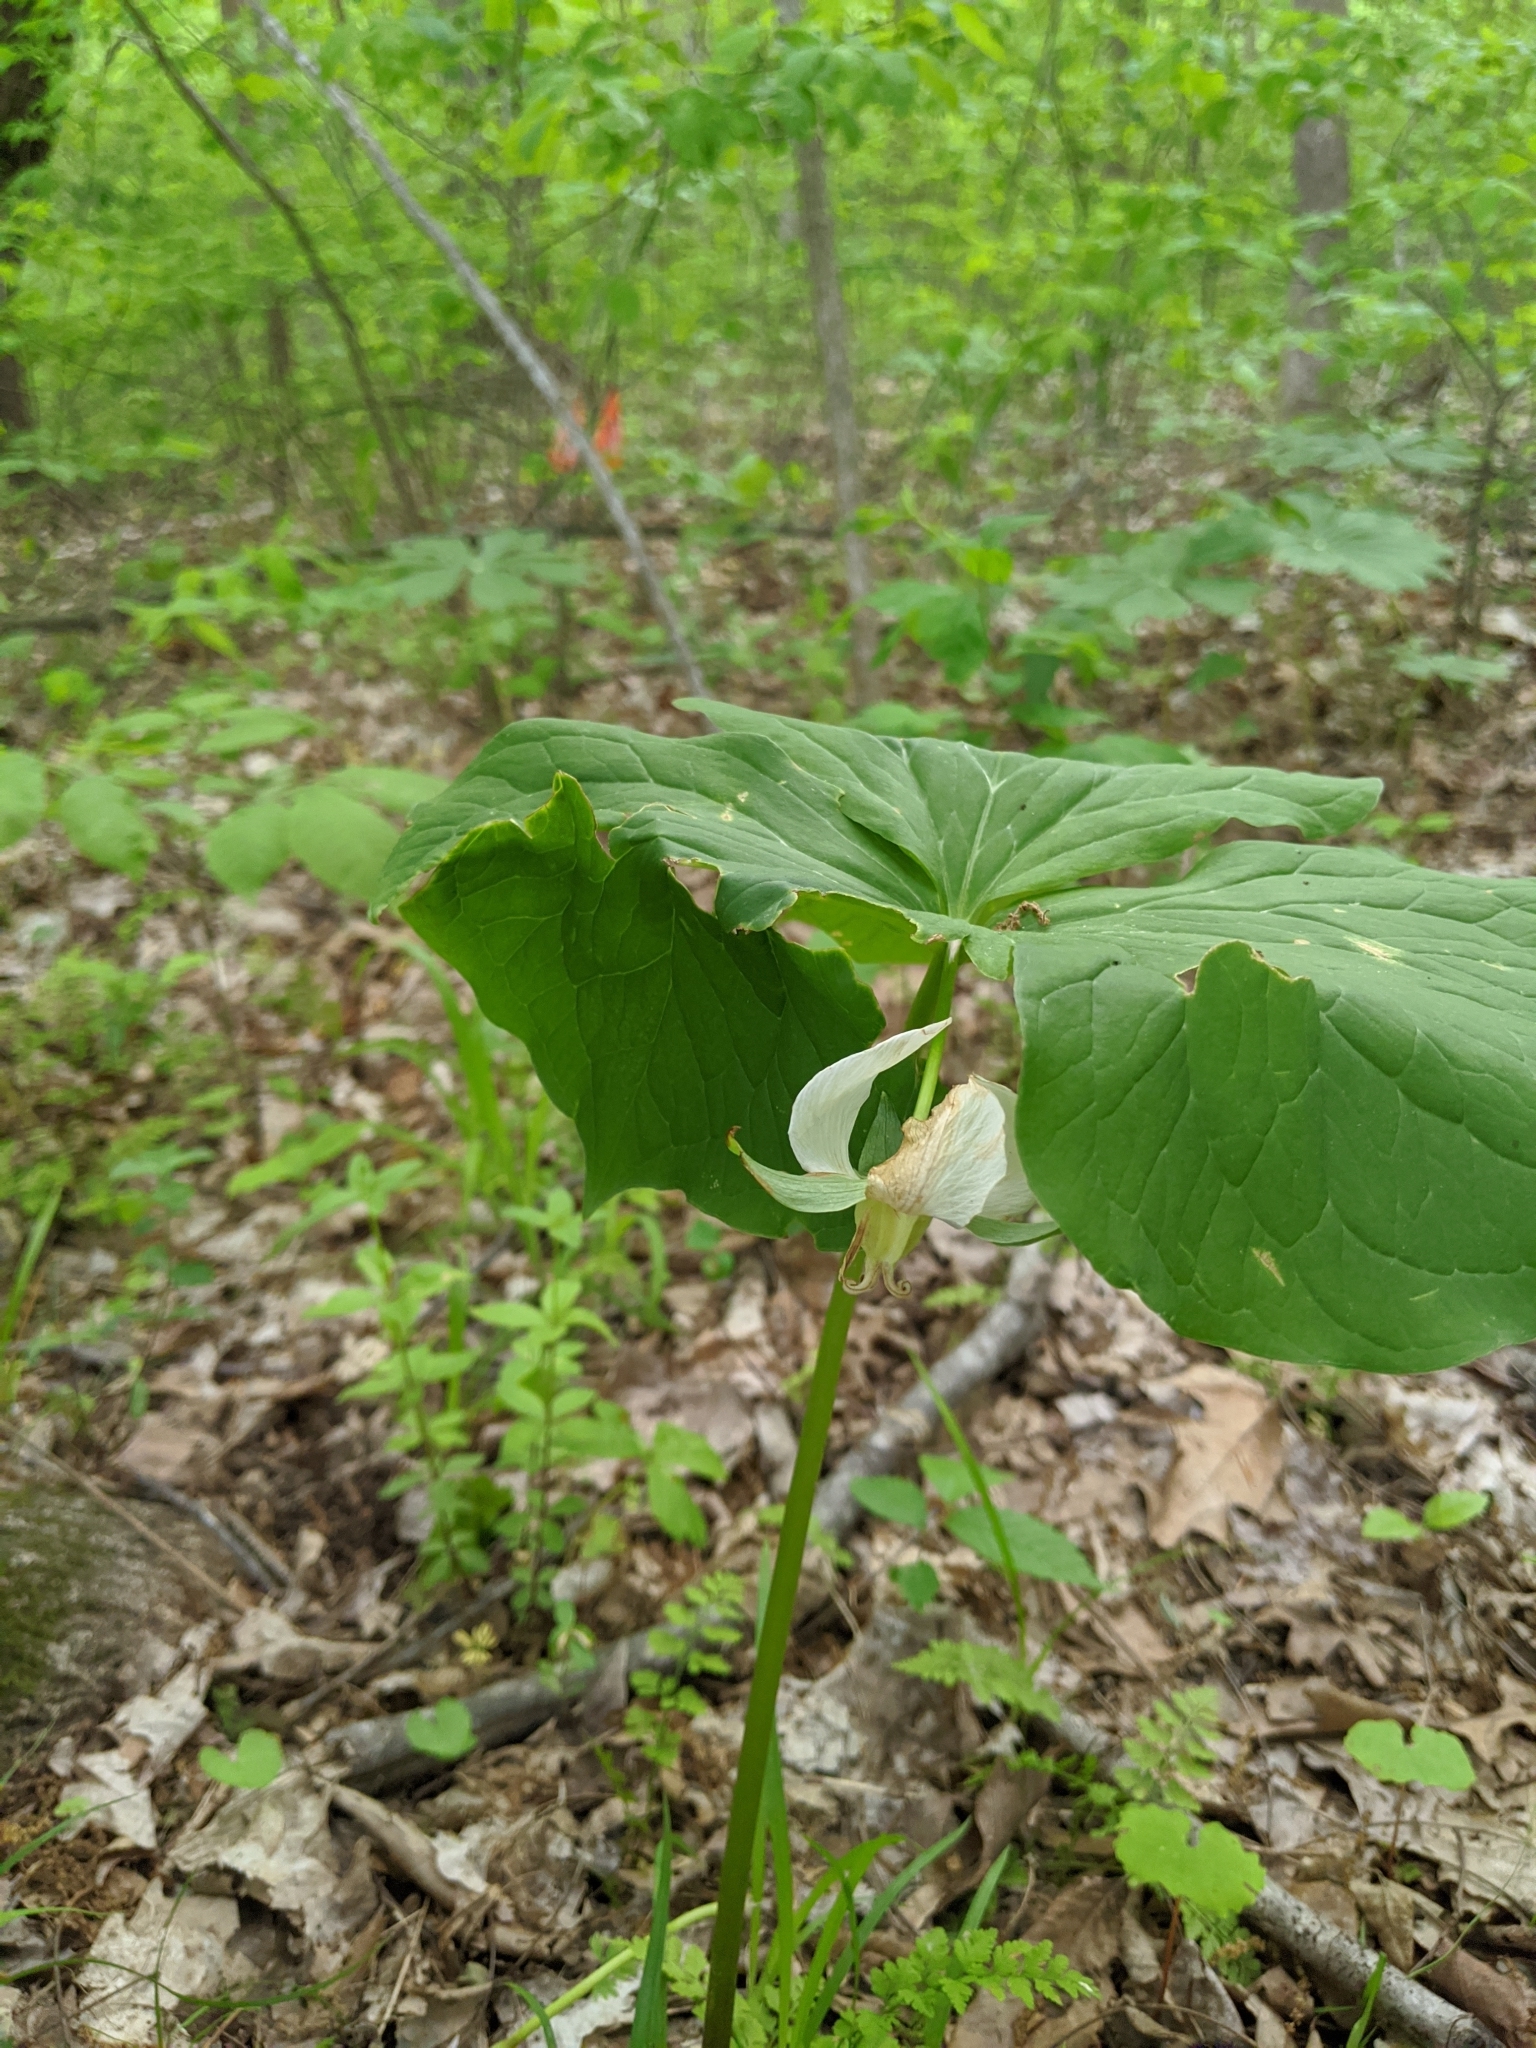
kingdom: Plantae
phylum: Tracheophyta
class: Liliopsida
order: Liliales
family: Melanthiaceae
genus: Trillium
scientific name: Trillium flexipes
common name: Drooping trillium
